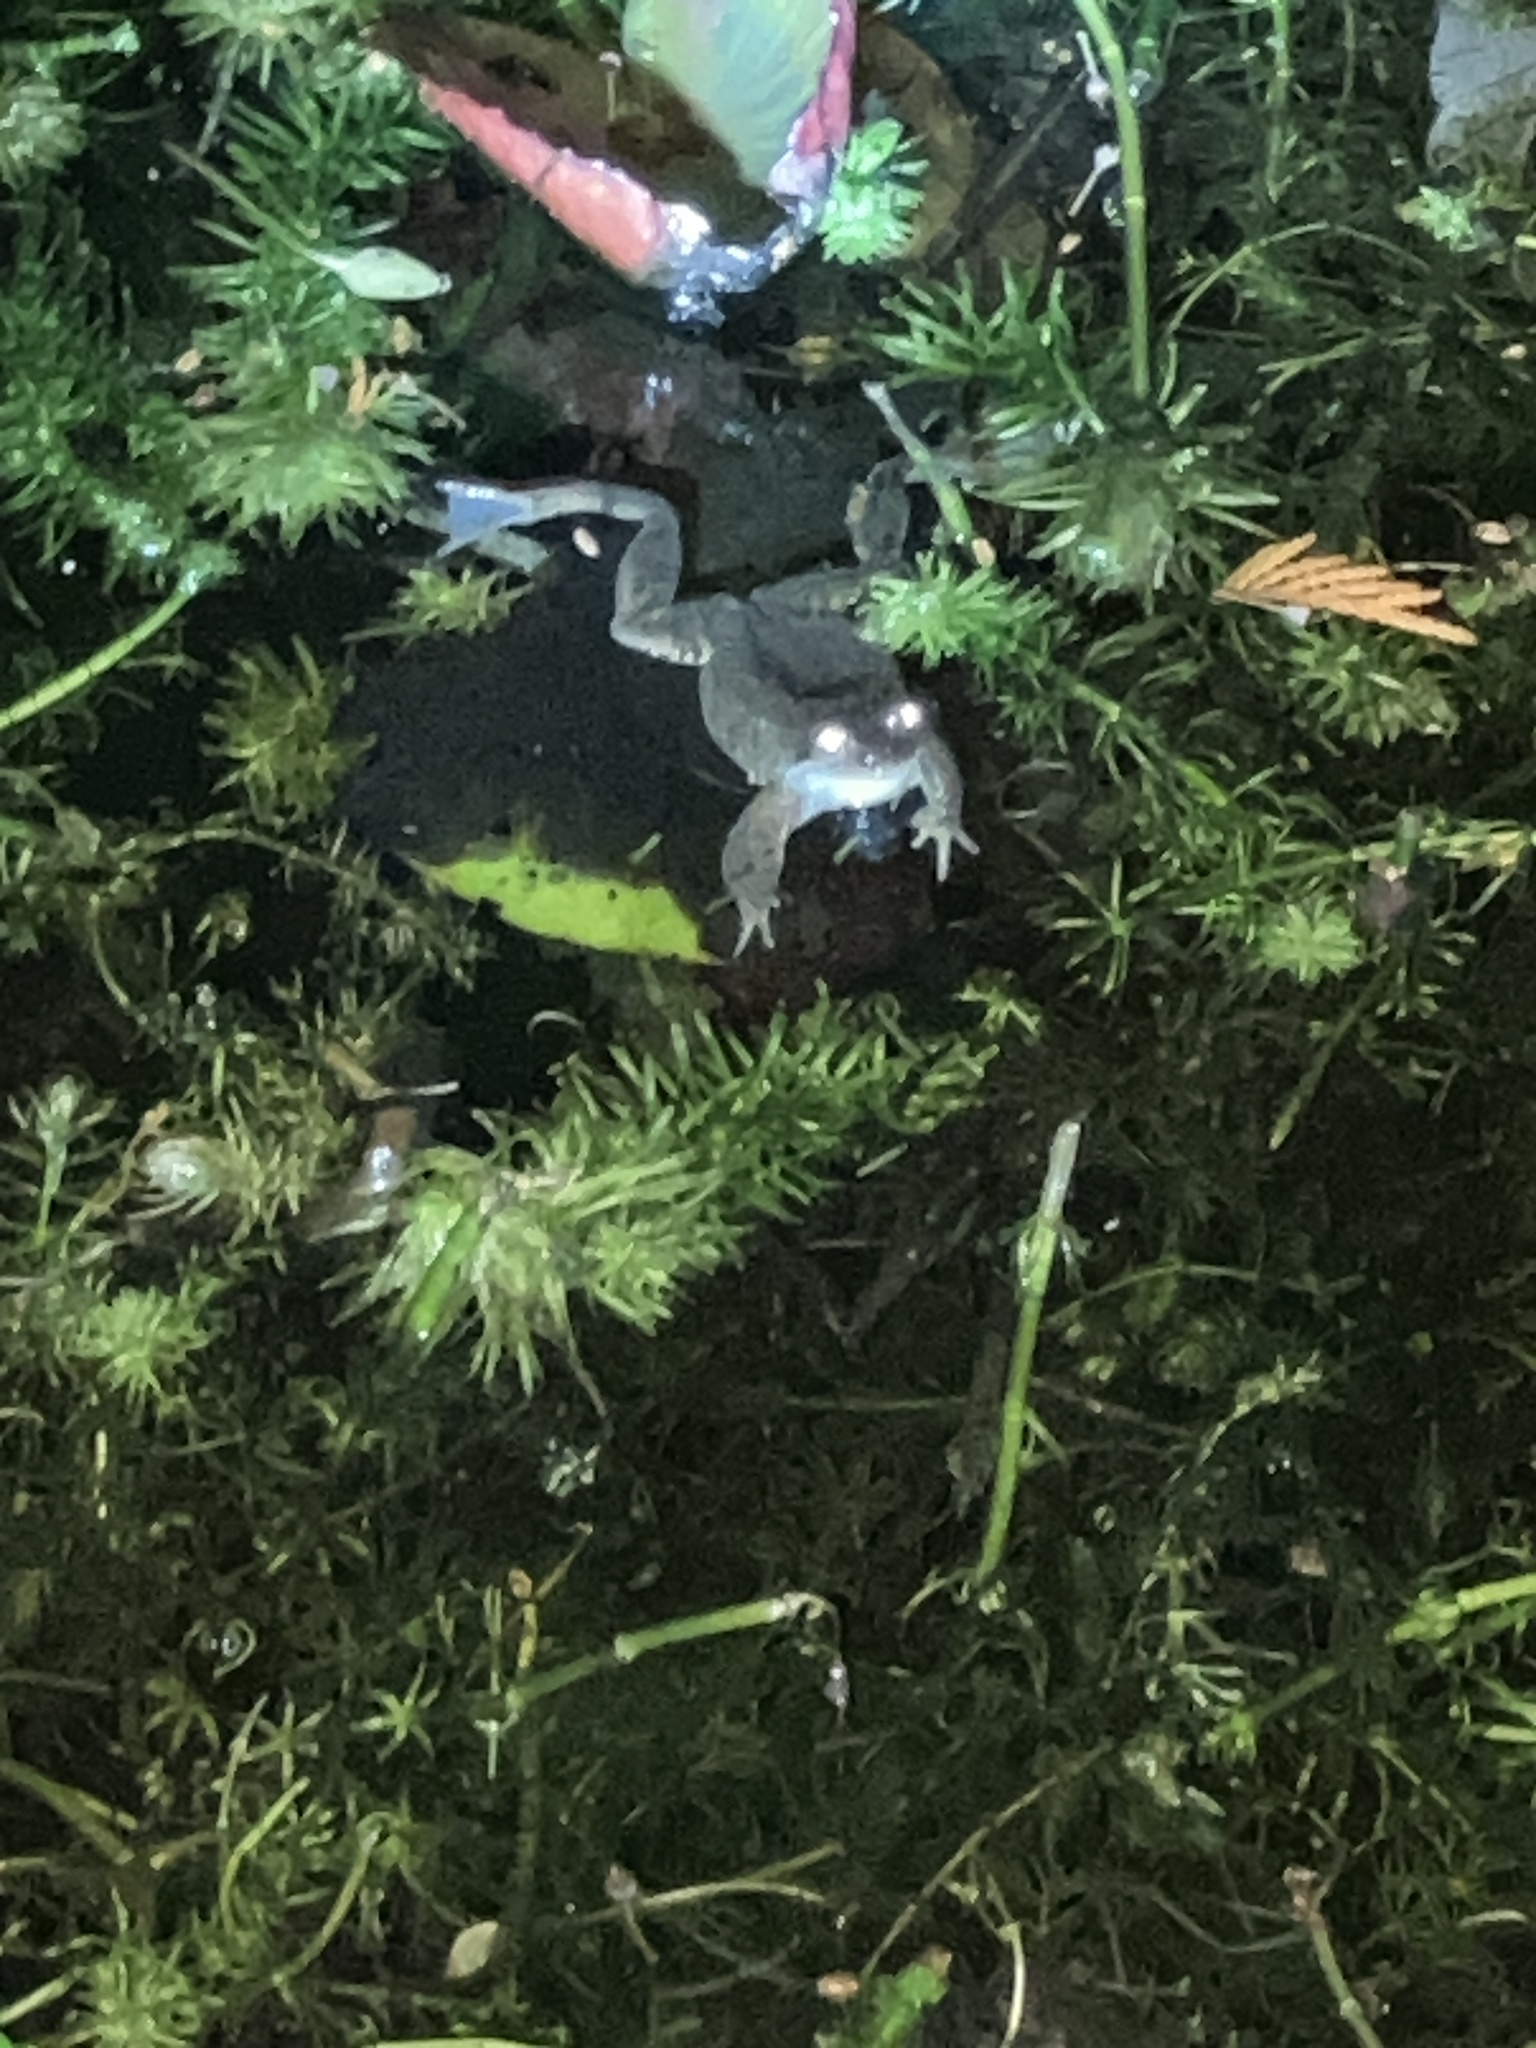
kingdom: Animalia
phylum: Chordata
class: Amphibia
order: Anura
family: Ranidae
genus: Rana
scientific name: Rana temporaria
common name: Common frog
